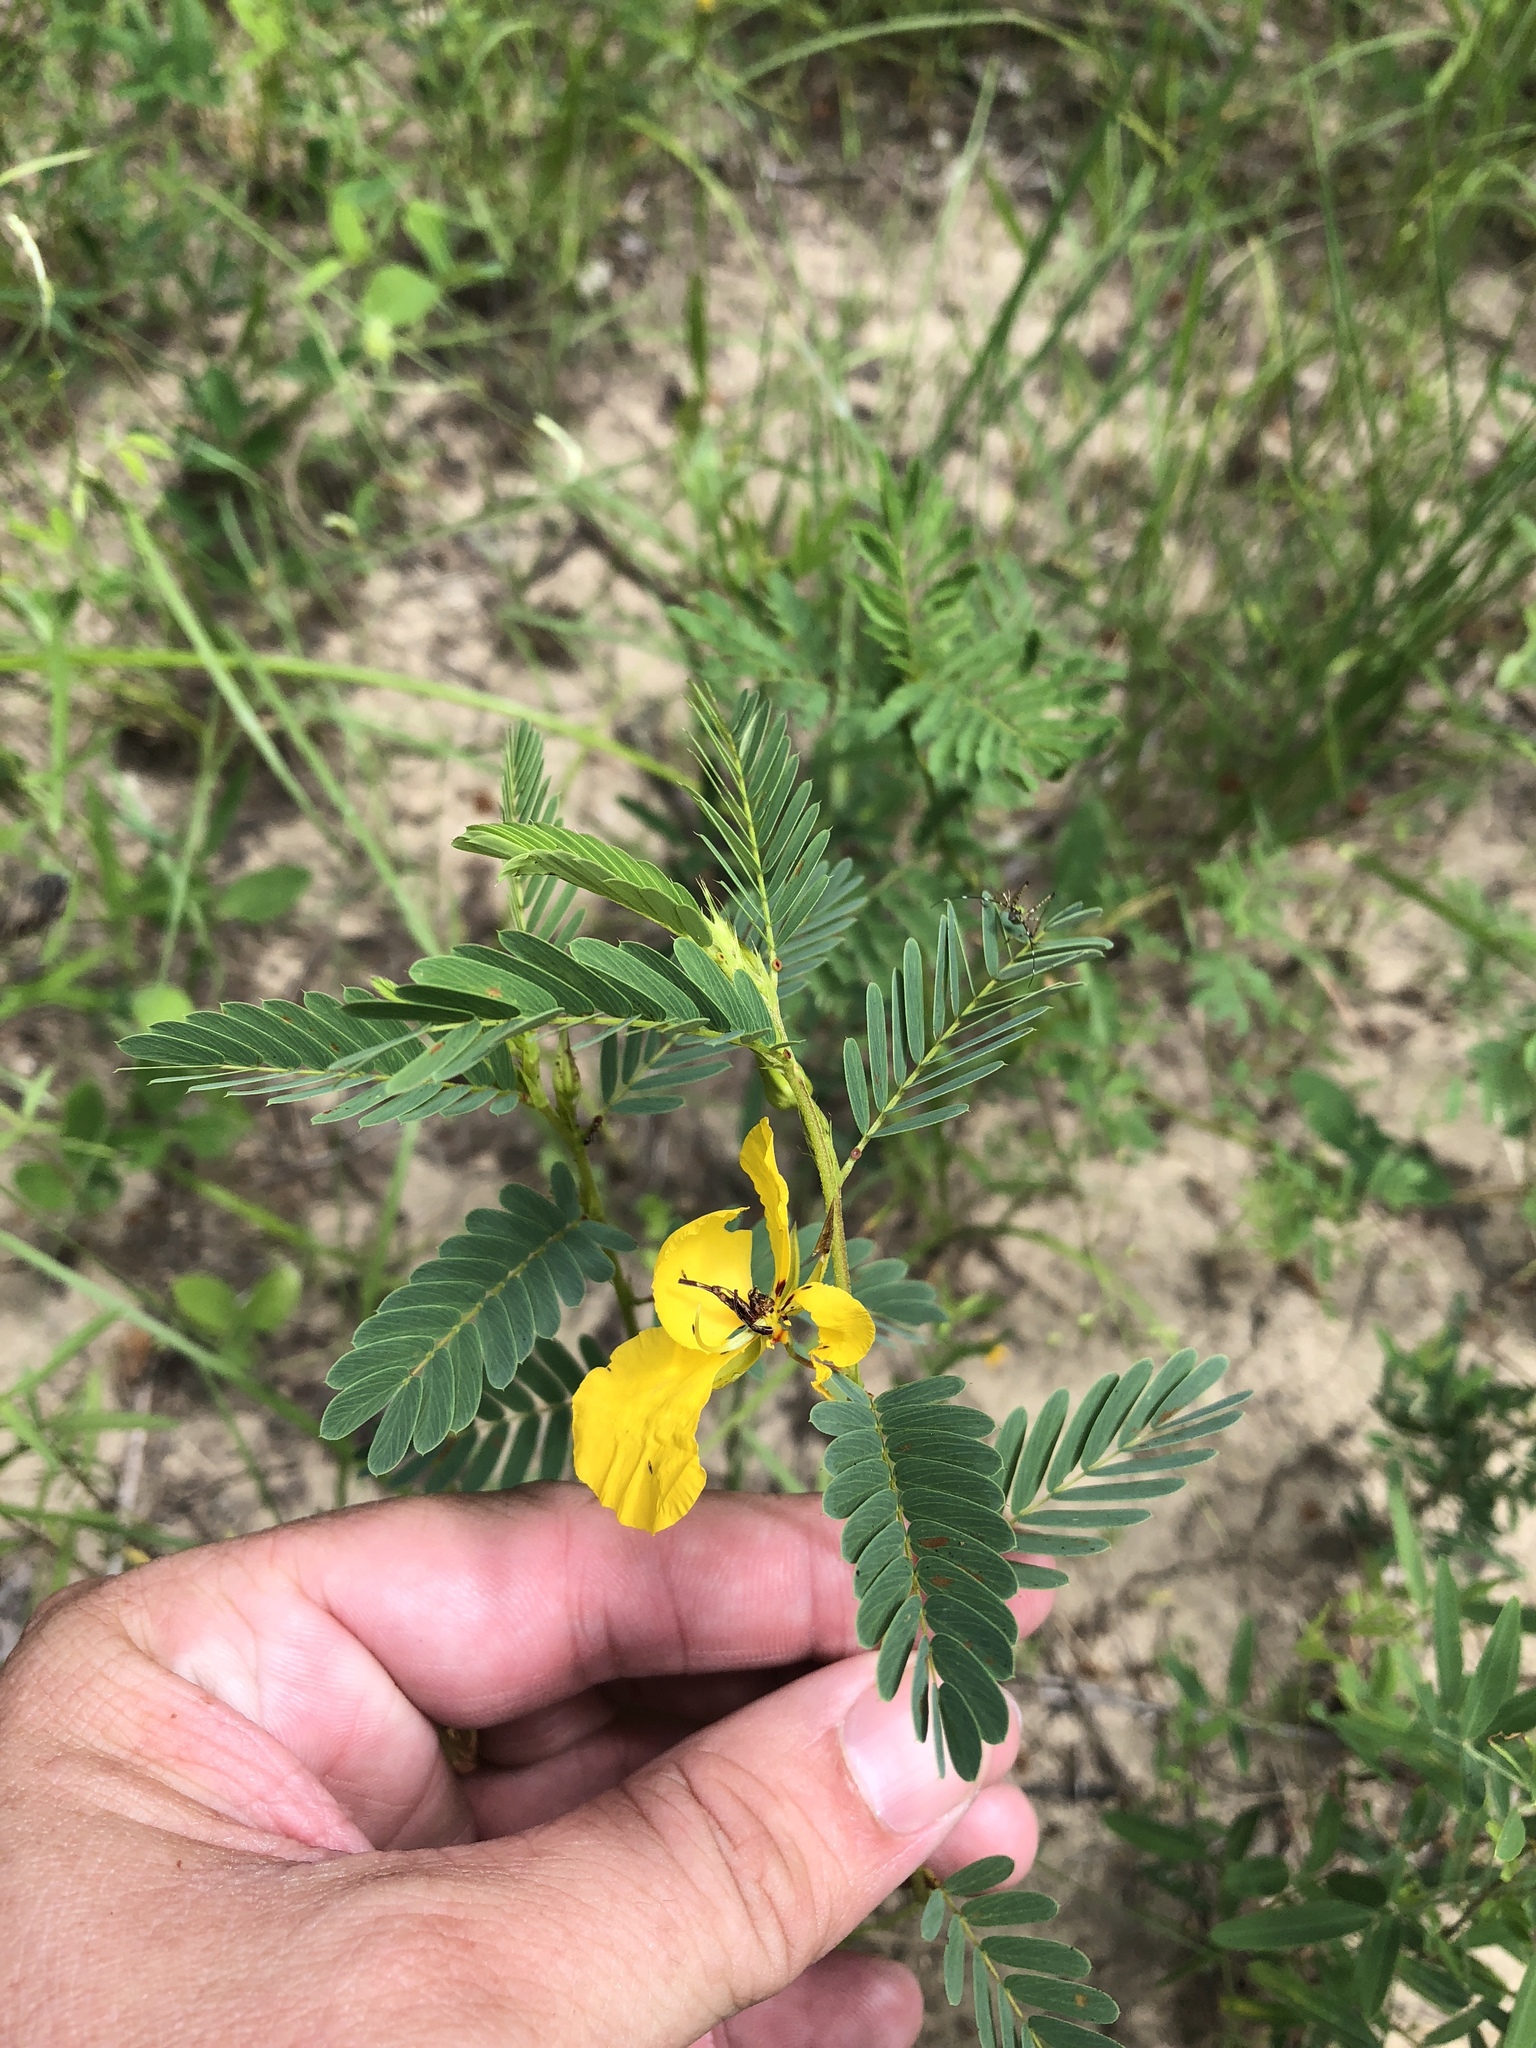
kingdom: Plantae
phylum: Tracheophyta
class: Magnoliopsida
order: Fabales
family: Fabaceae
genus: Chamaecrista
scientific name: Chamaecrista fasciculata
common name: Golden cassia
